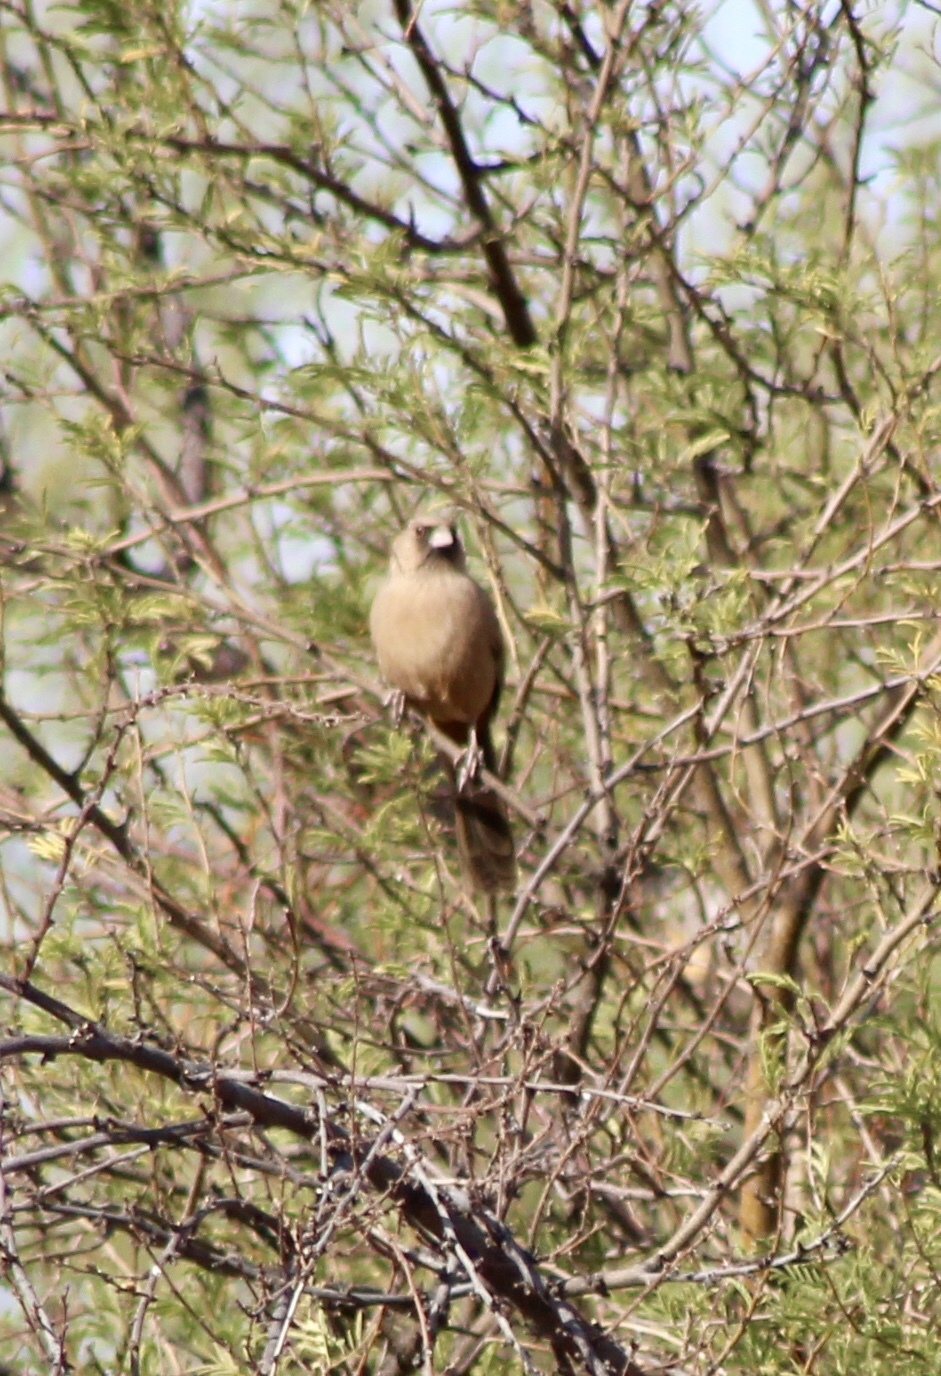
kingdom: Animalia
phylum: Chordata
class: Aves
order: Passeriformes
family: Passerellidae
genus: Melozone
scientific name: Melozone aberti
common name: Abert's towhee
